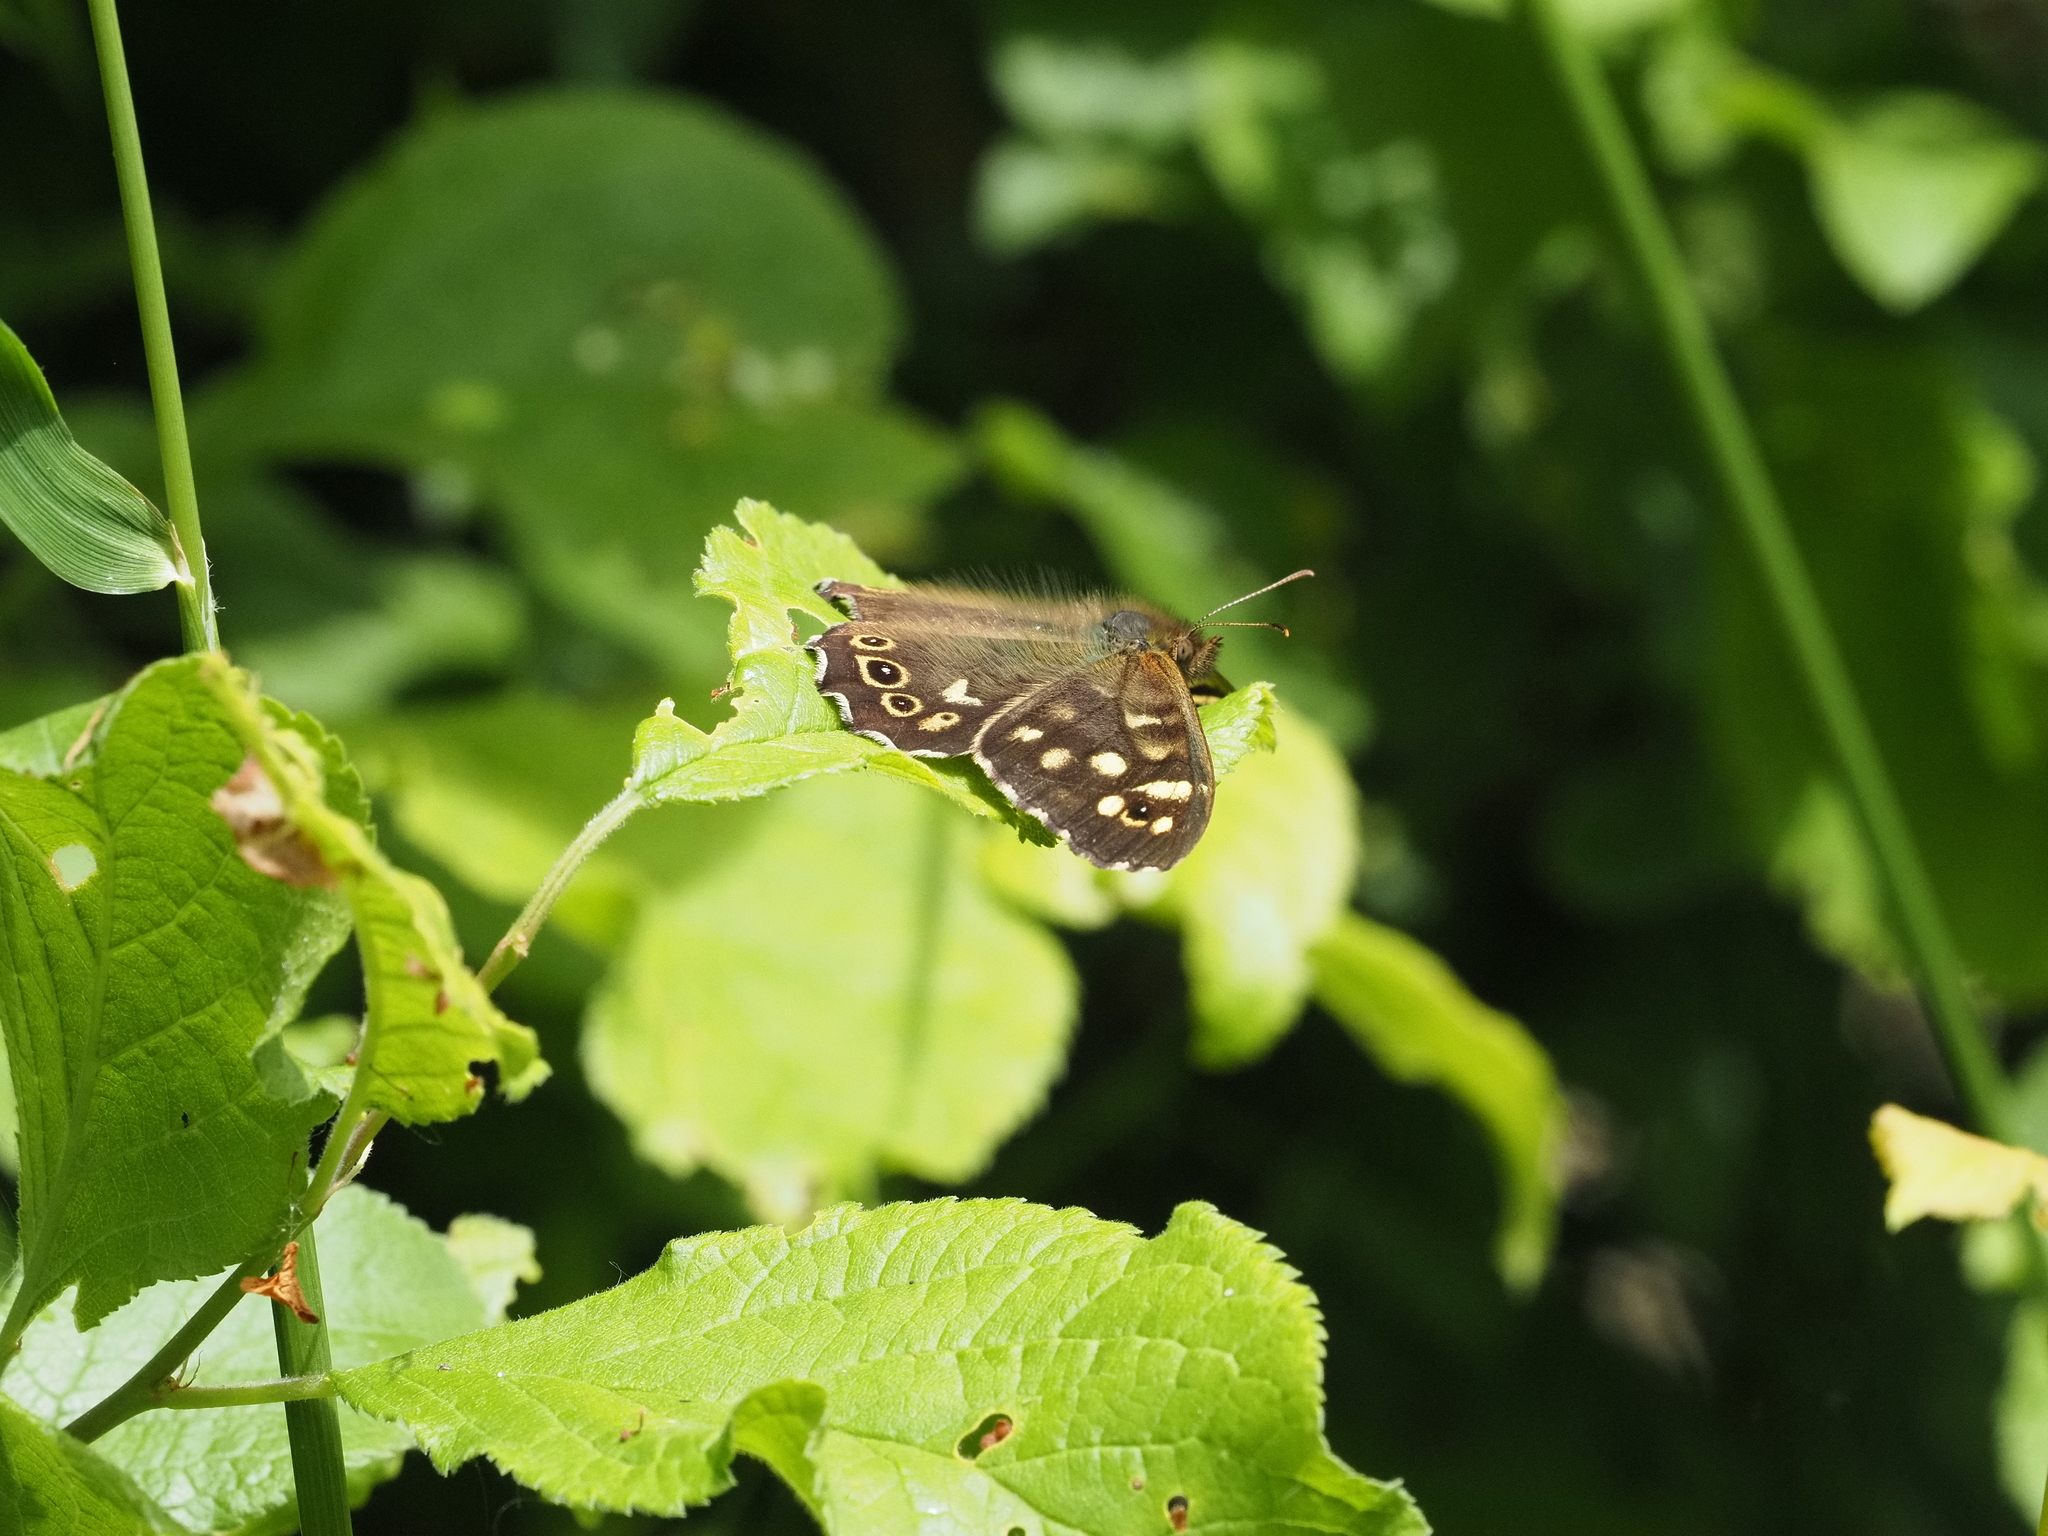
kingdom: Animalia
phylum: Arthropoda
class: Insecta
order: Lepidoptera
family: Nymphalidae
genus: Pararge
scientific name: Pararge aegeria
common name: Speckled wood
